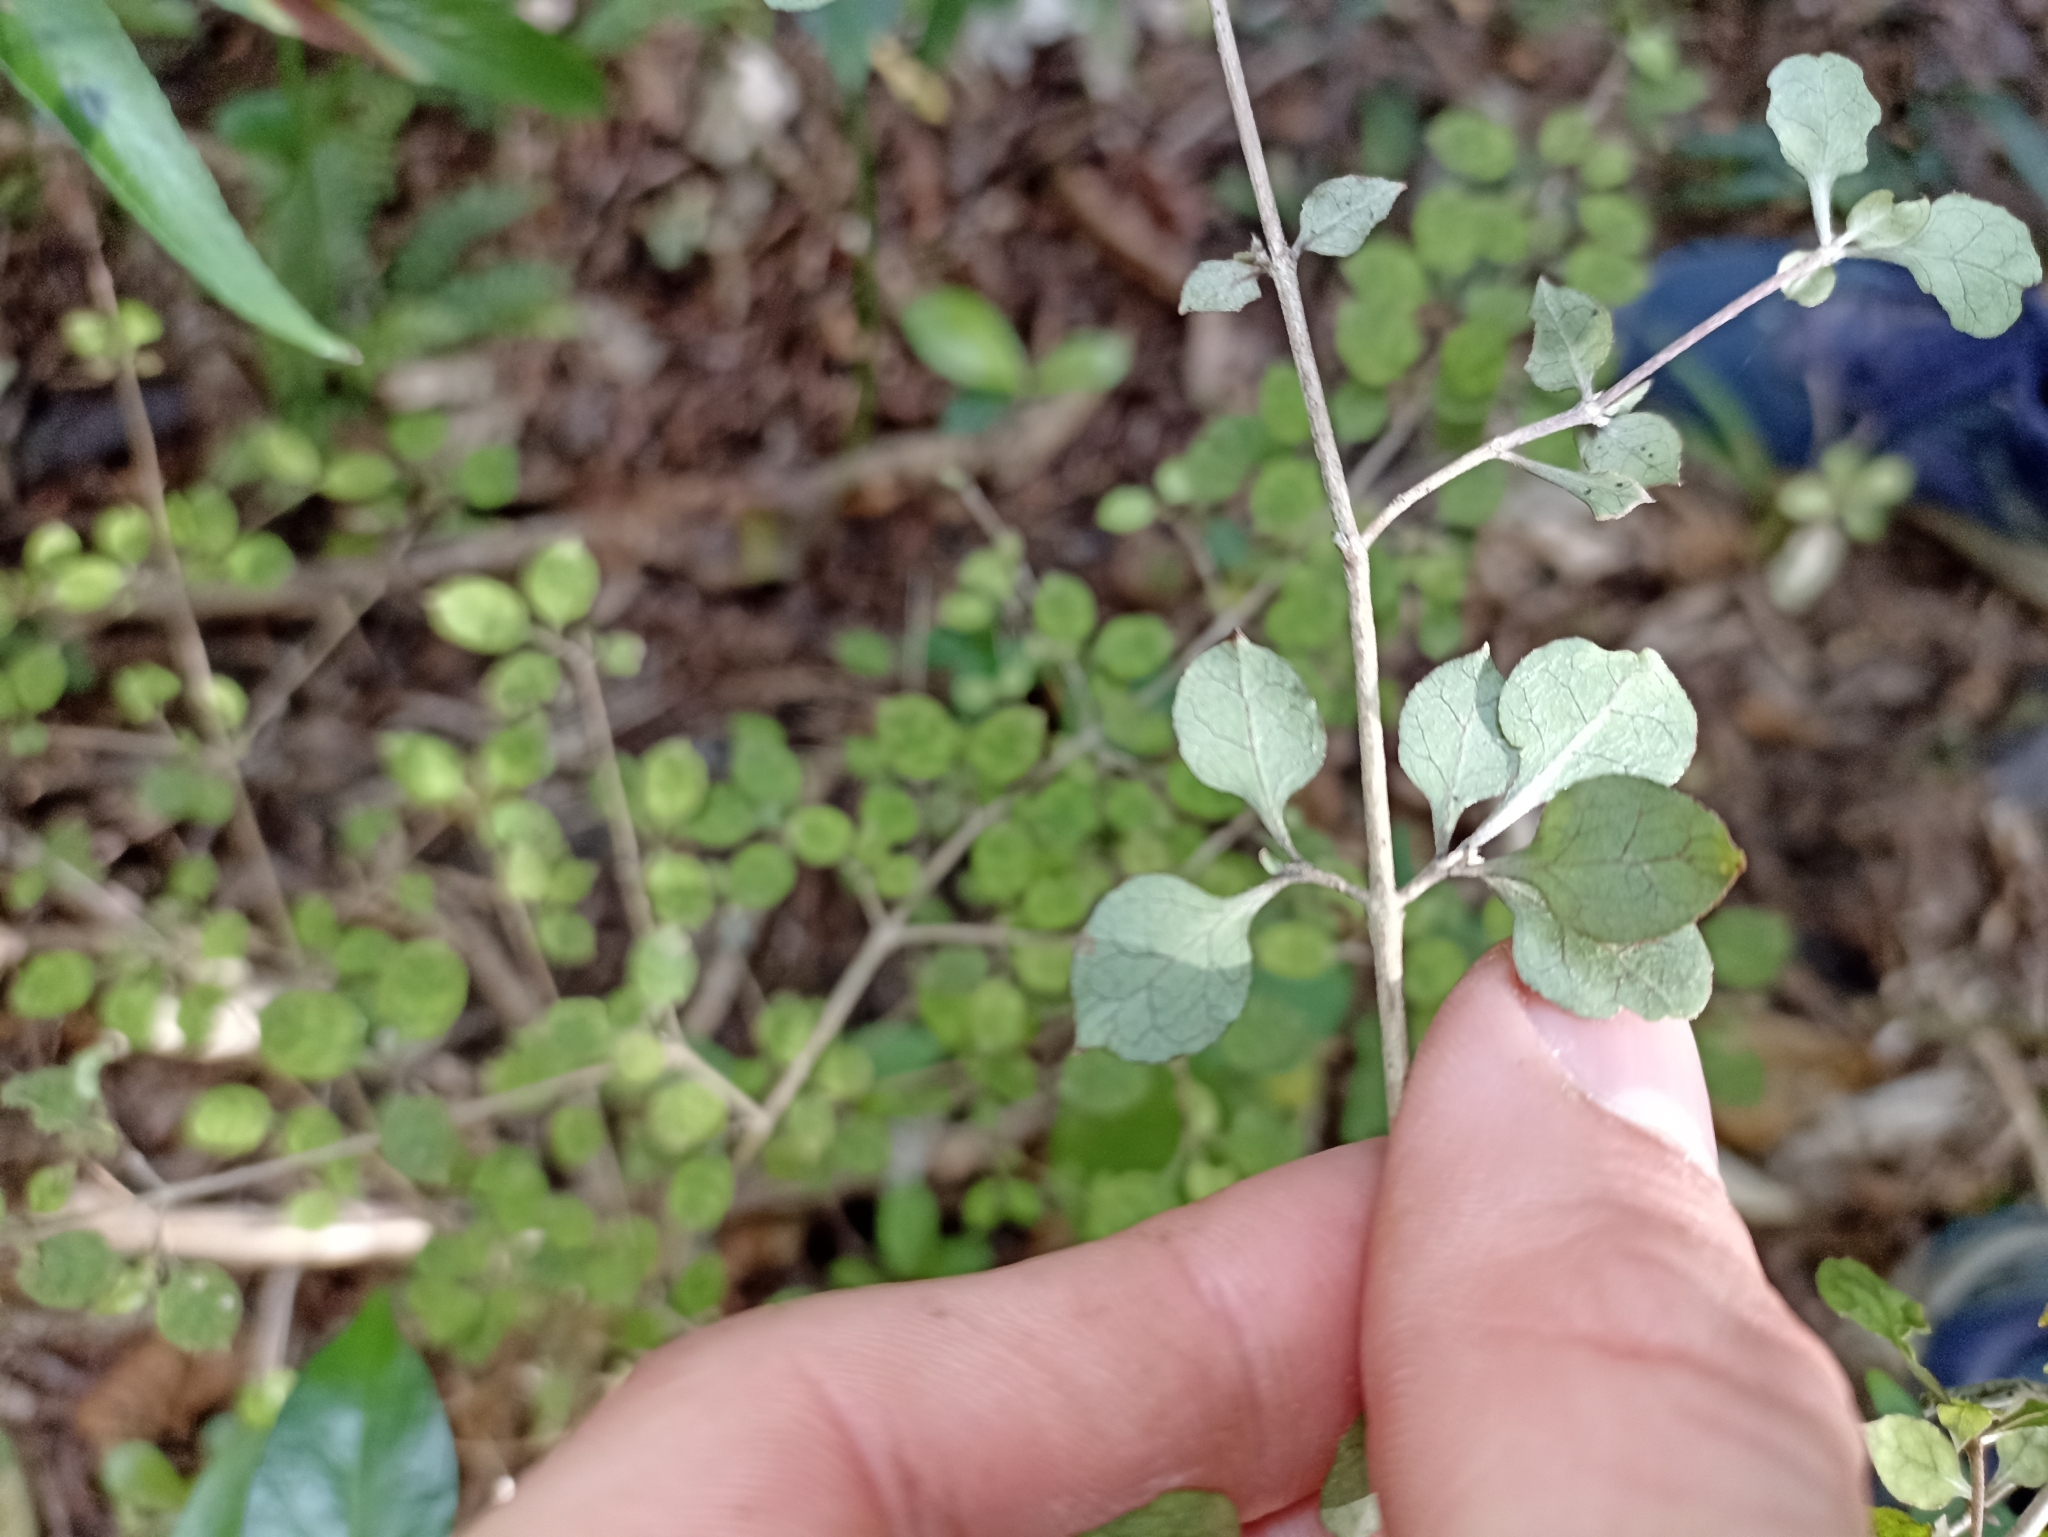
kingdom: Plantae
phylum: Tracheophyta
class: Magnoliopsida
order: Gentianales
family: Rubiaceae
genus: Coprosma
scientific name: Coprosma areolata
